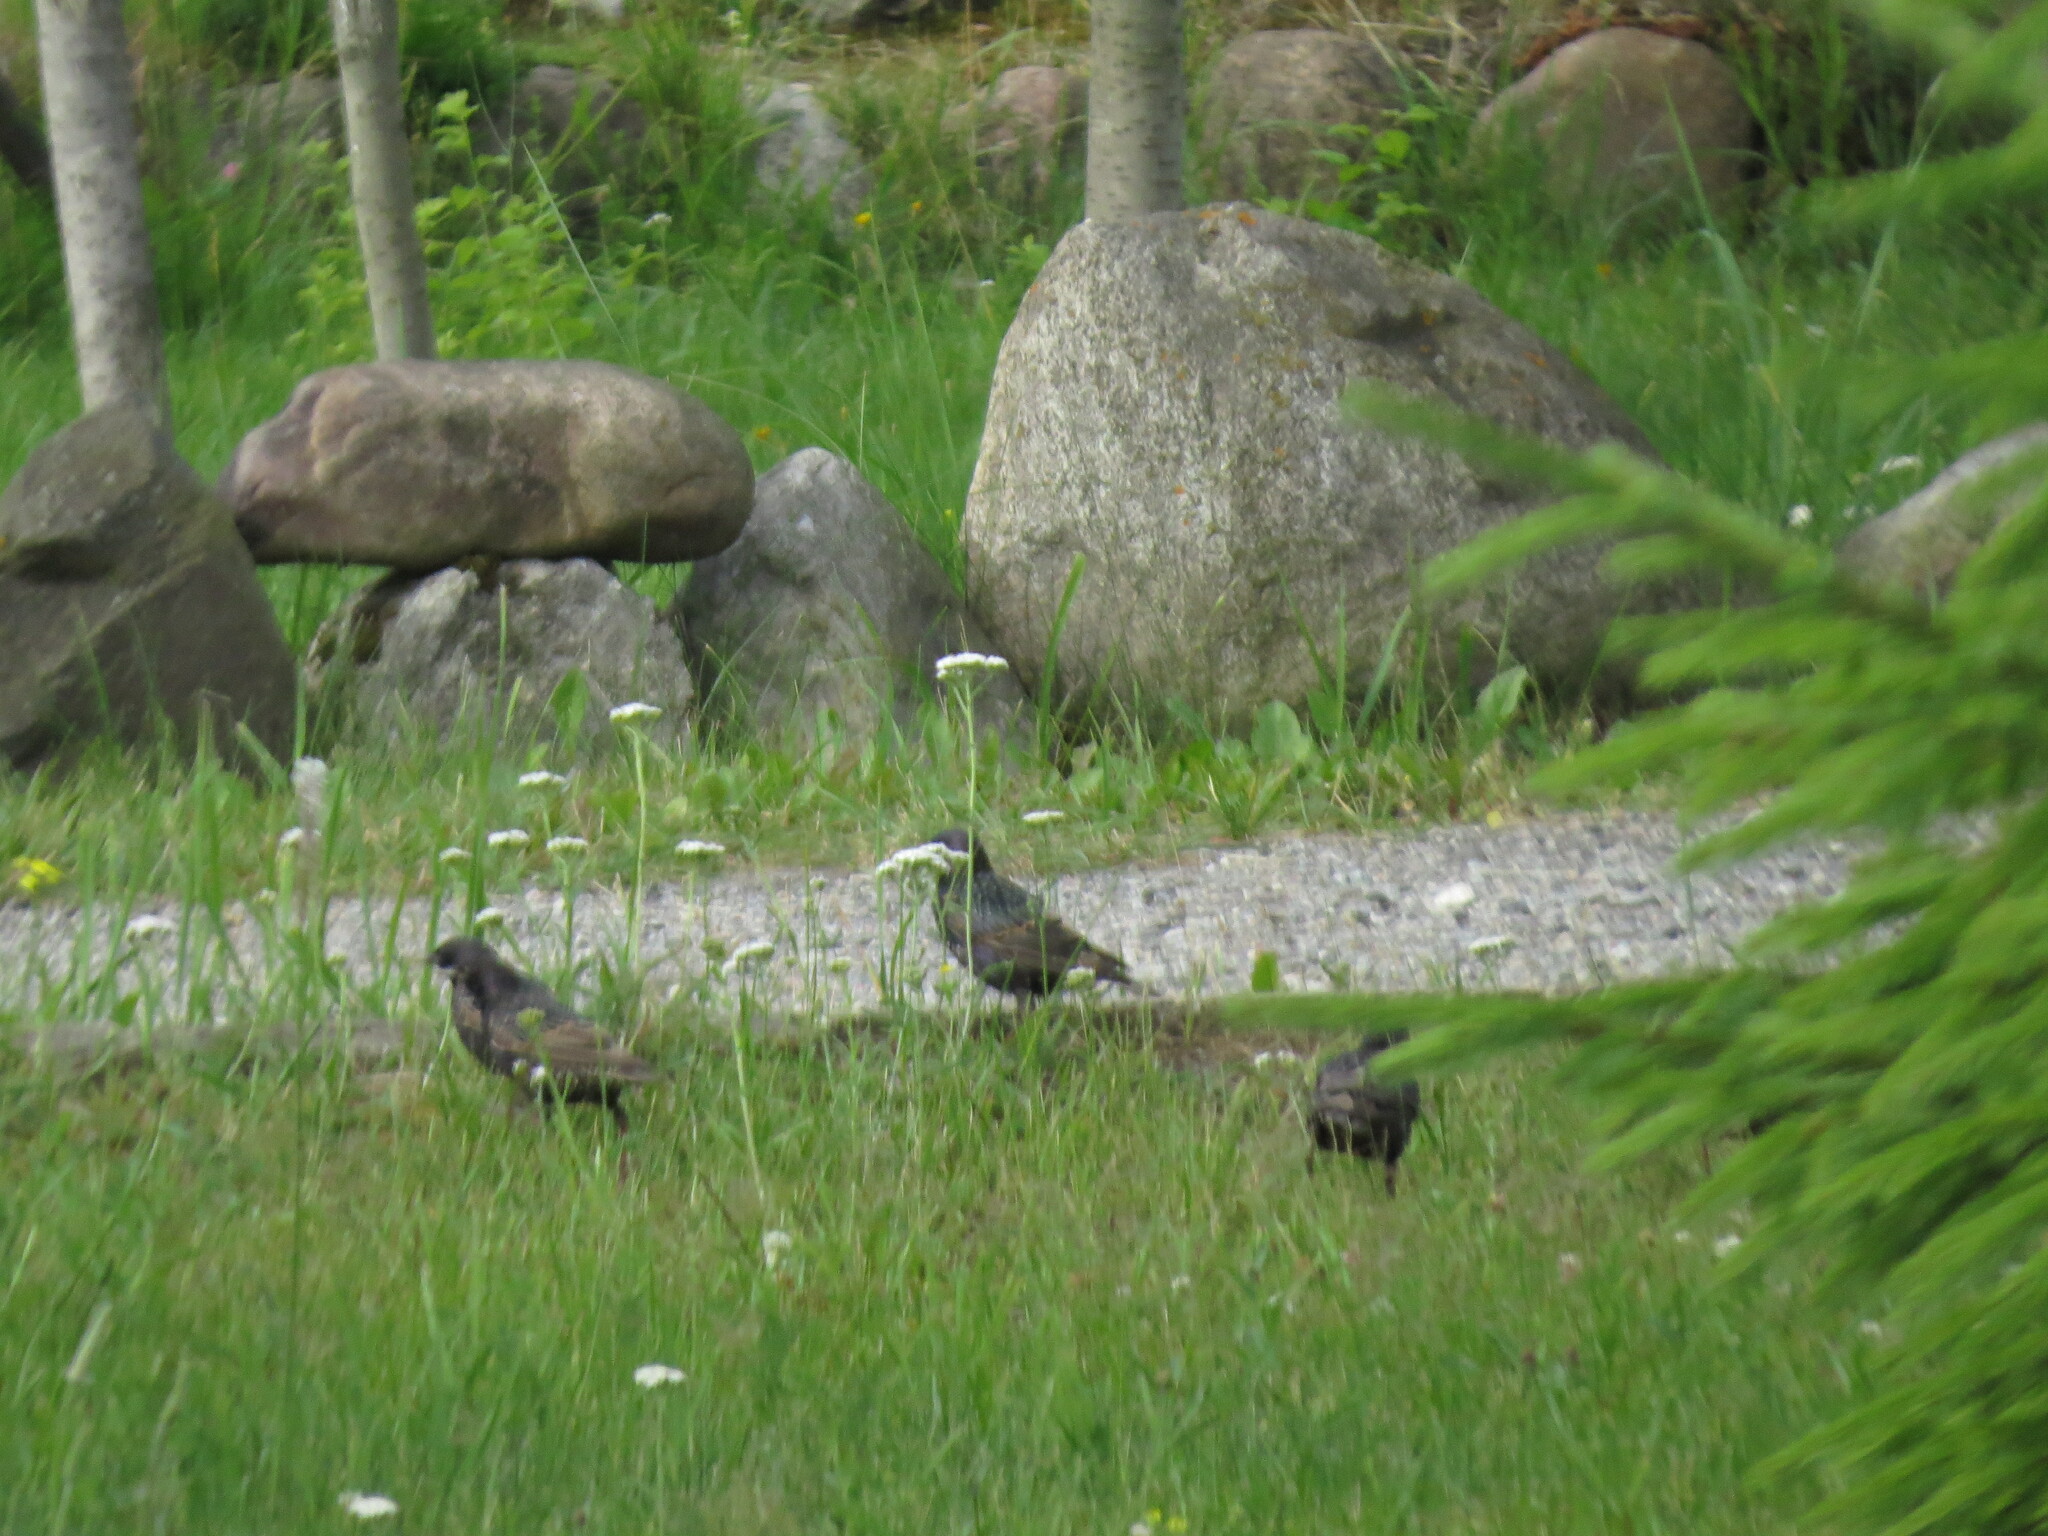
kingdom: Animalia
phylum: Chordata
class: Aves
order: Passeriformes
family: Sturnidae
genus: Sturnus
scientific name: Sturnus vulgaris
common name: Common starling
